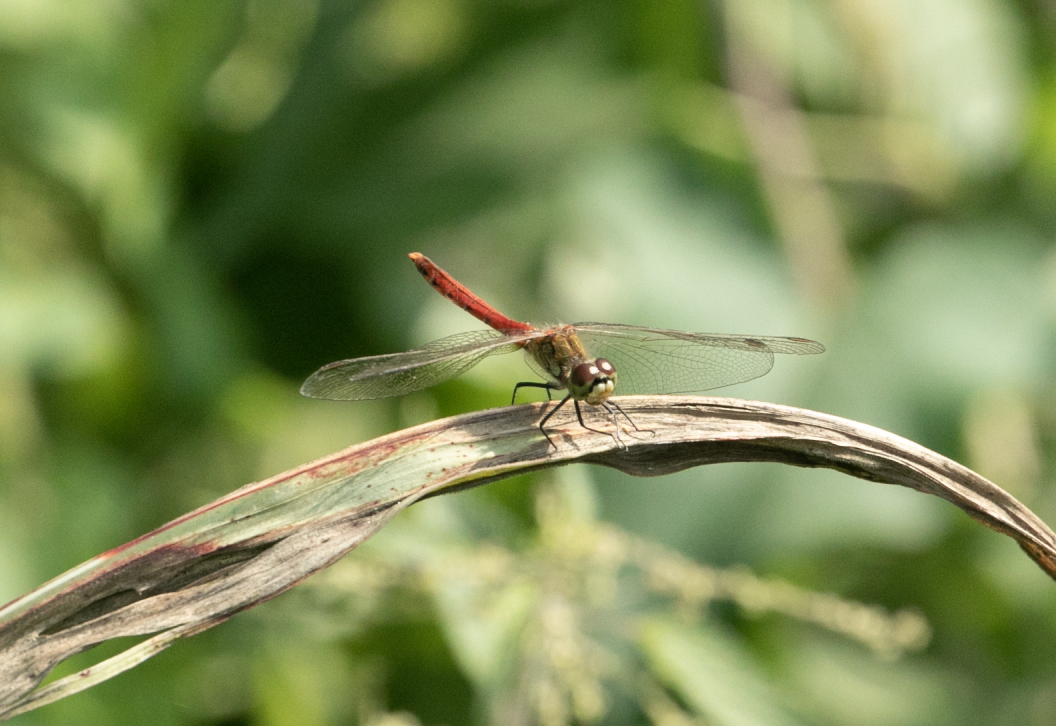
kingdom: Animalia
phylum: Arthropoda
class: Insecta
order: Odonata
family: Libellulidae
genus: Sympetrum
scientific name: Sympetrum depressiusculum
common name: Spotted darter
